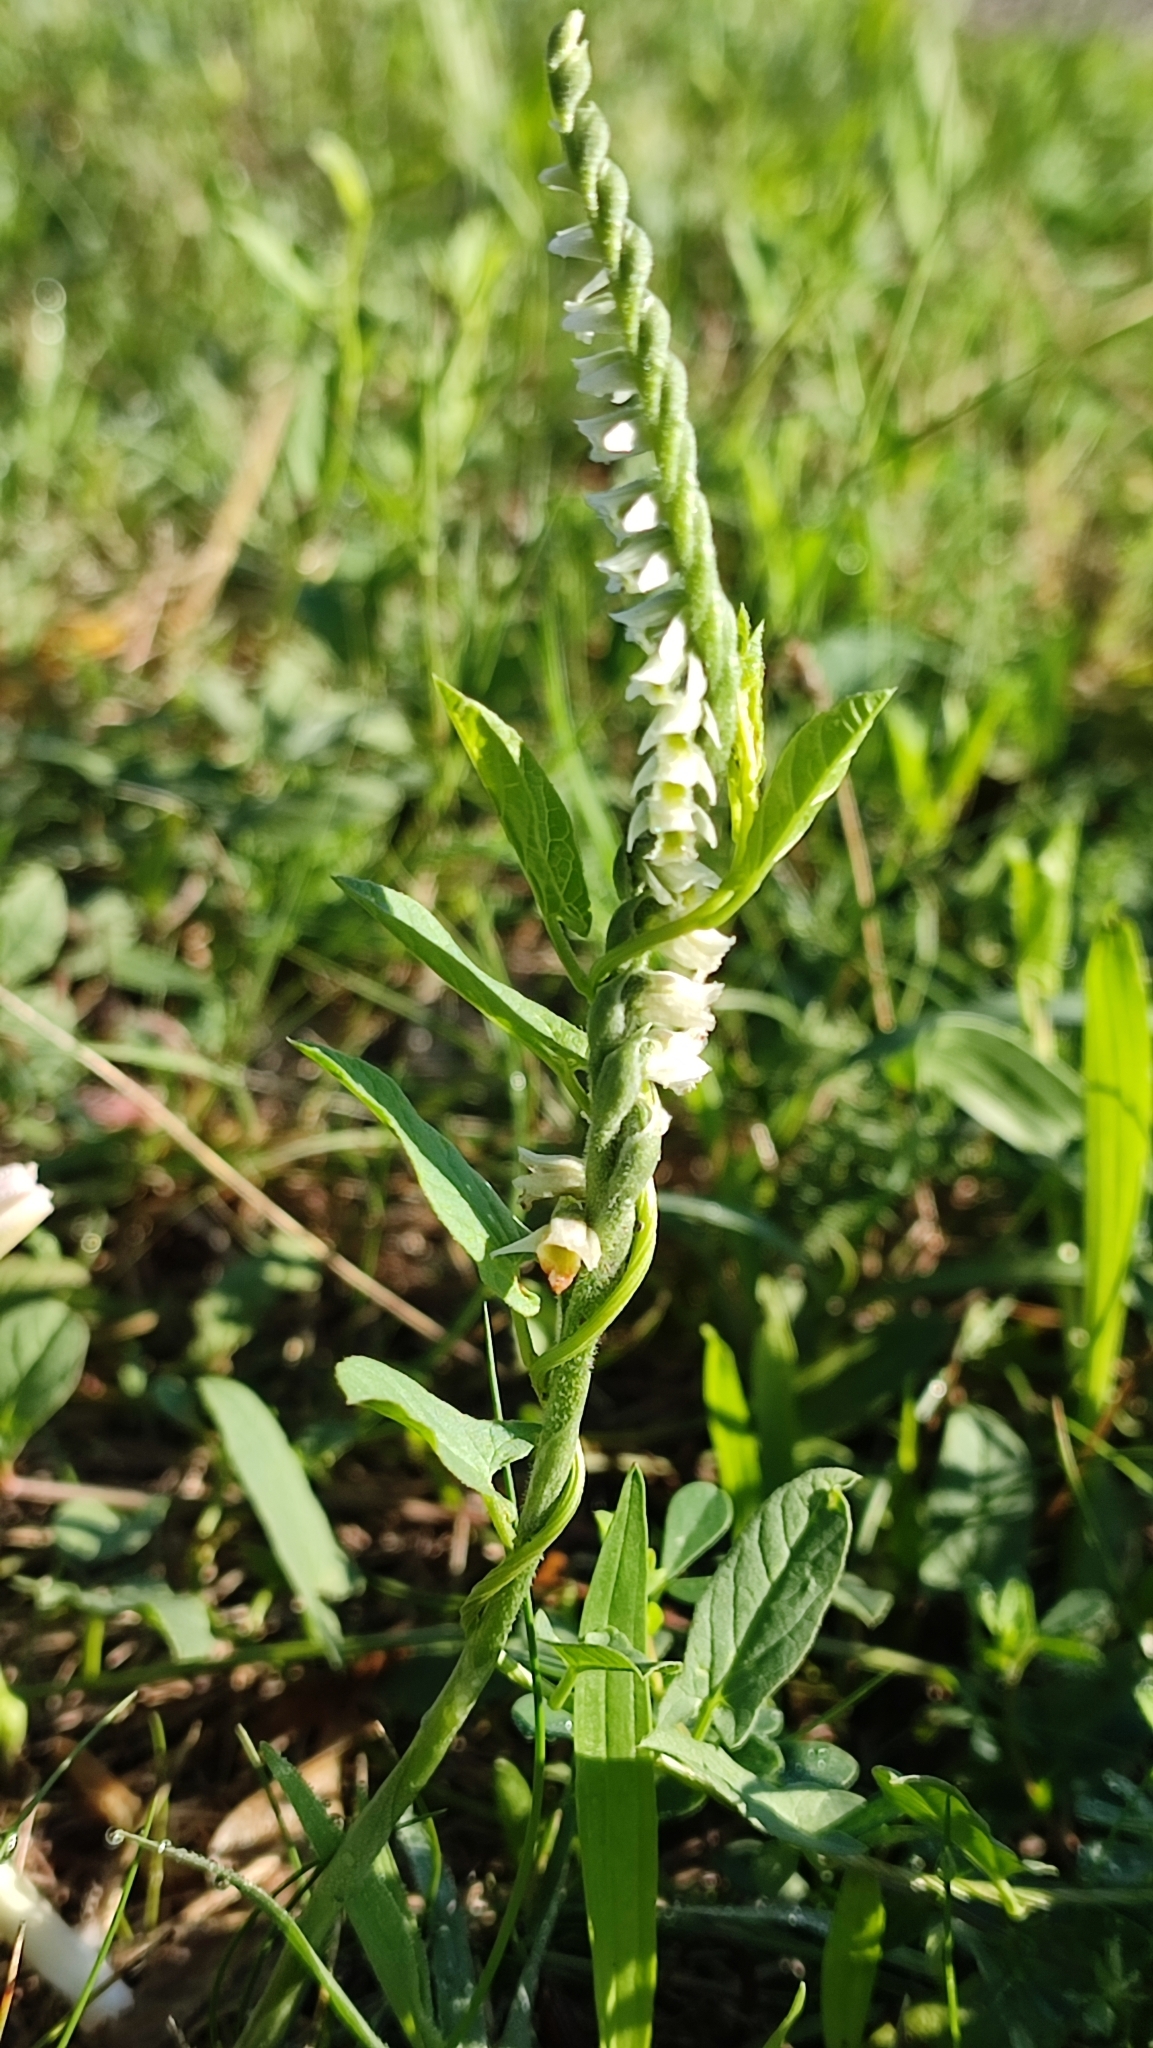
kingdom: Plantae
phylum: Tracheophyta
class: Liliopsida
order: Asparagales
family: Orchidaceae
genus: Spiranthes
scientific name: Spiranthes spiralis
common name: Autumn lady's-tresses
